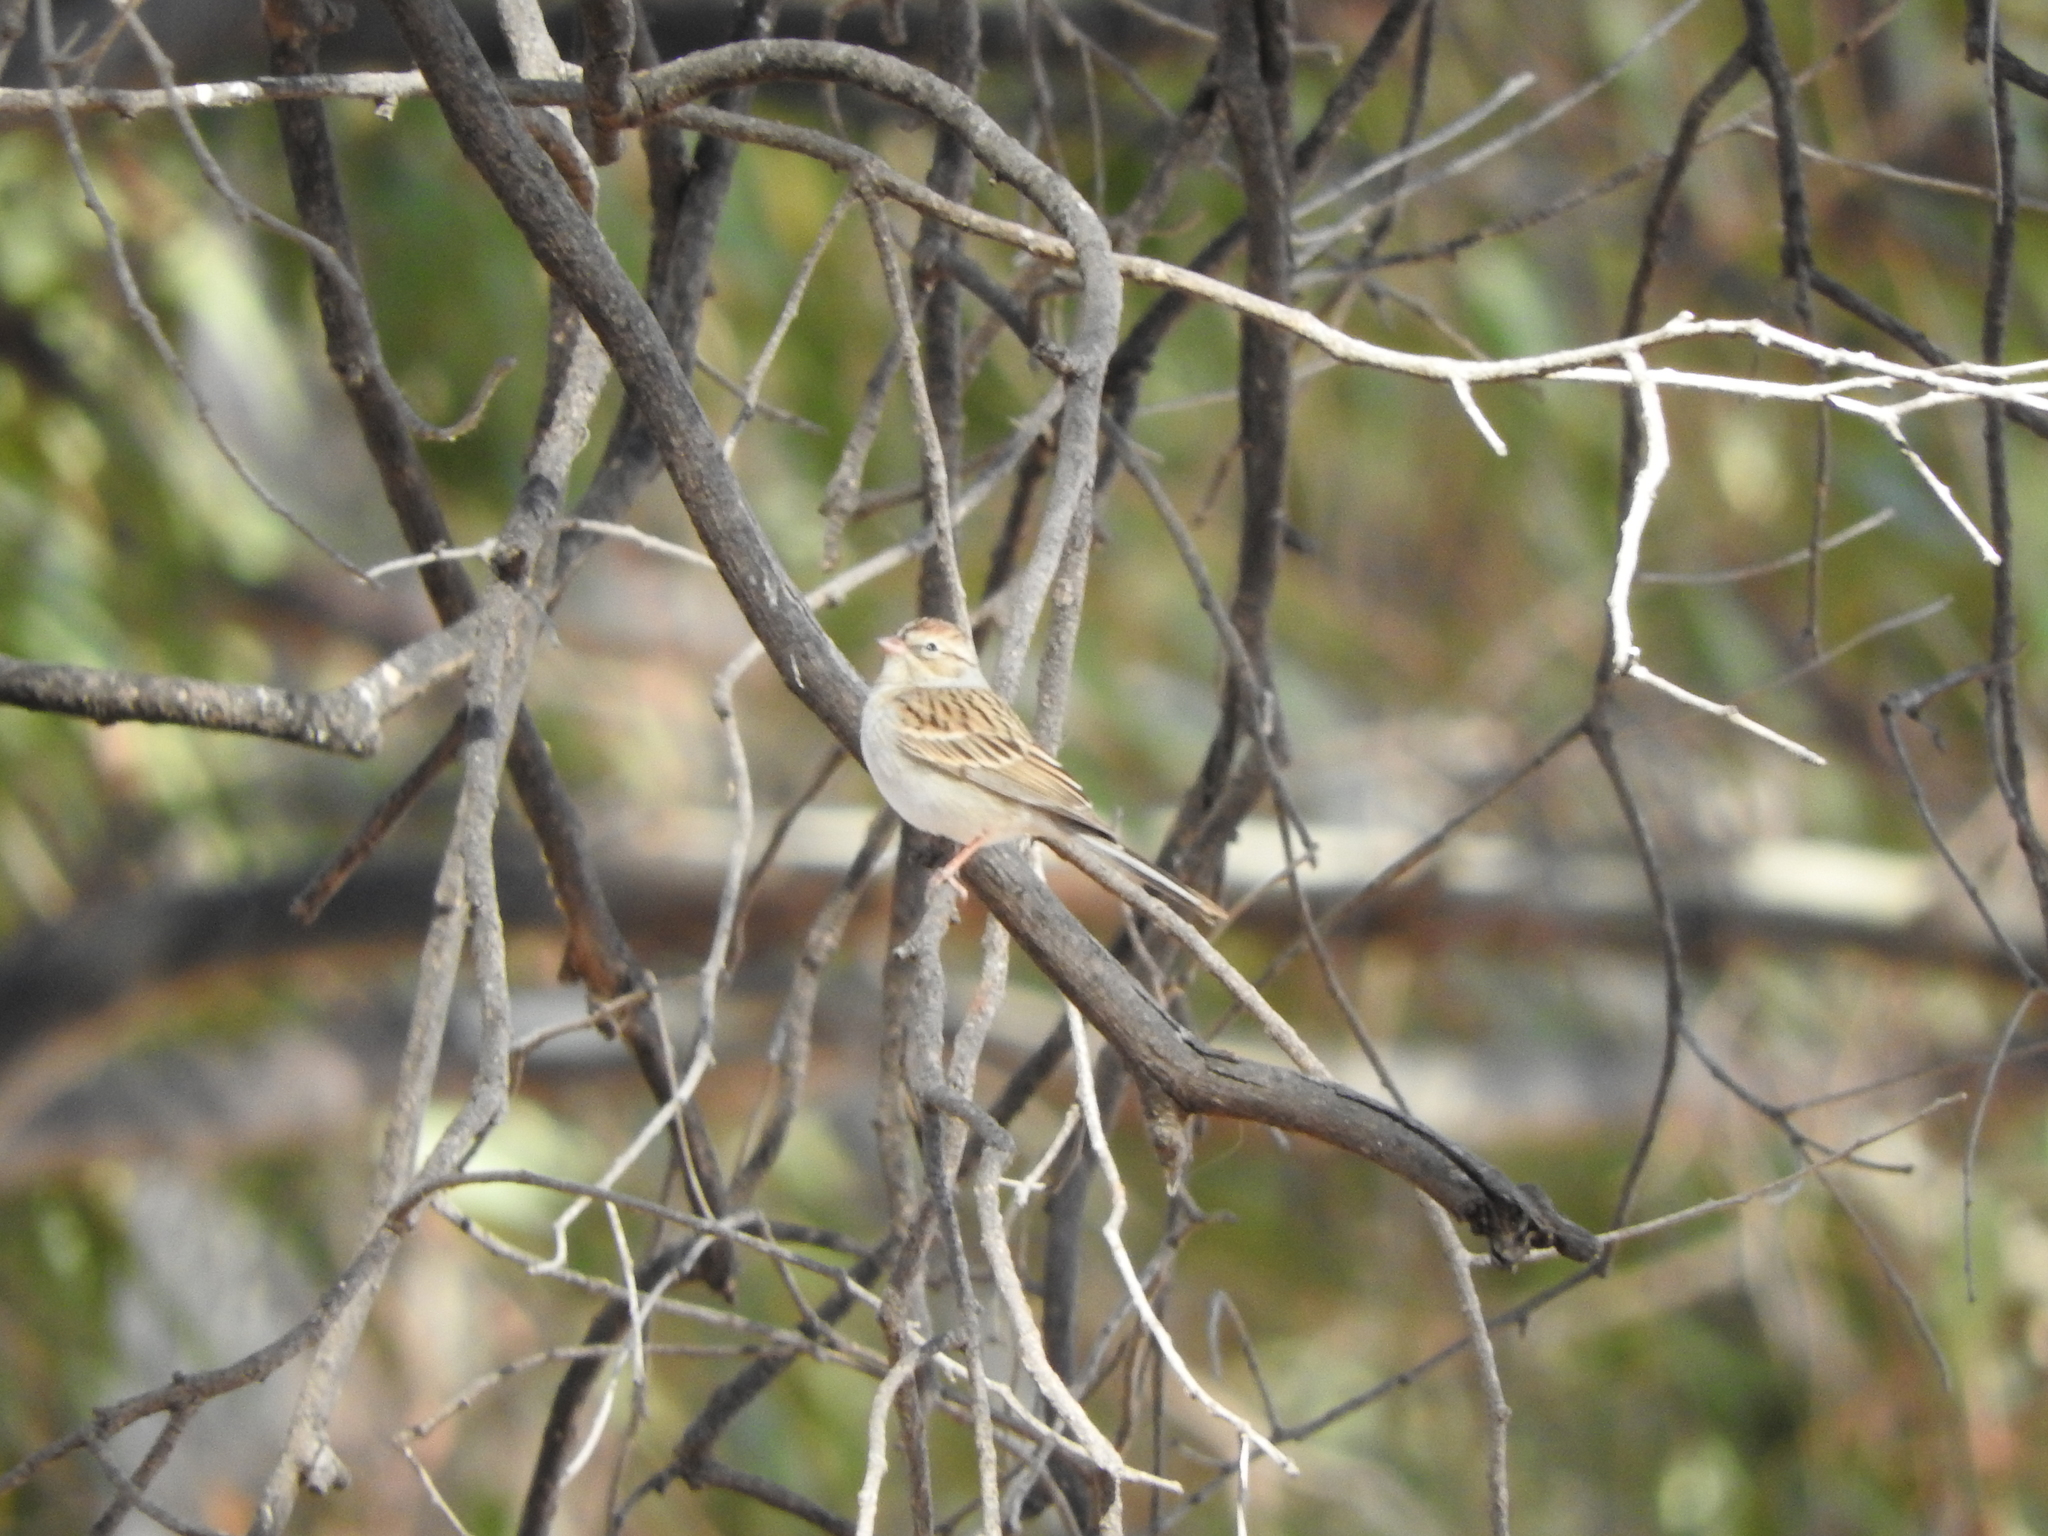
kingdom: Animalia
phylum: Chordata
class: Aves
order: Passeriformes
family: Passerellidae
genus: Spizella
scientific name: Spizella passerina
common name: Chipping sparrow
